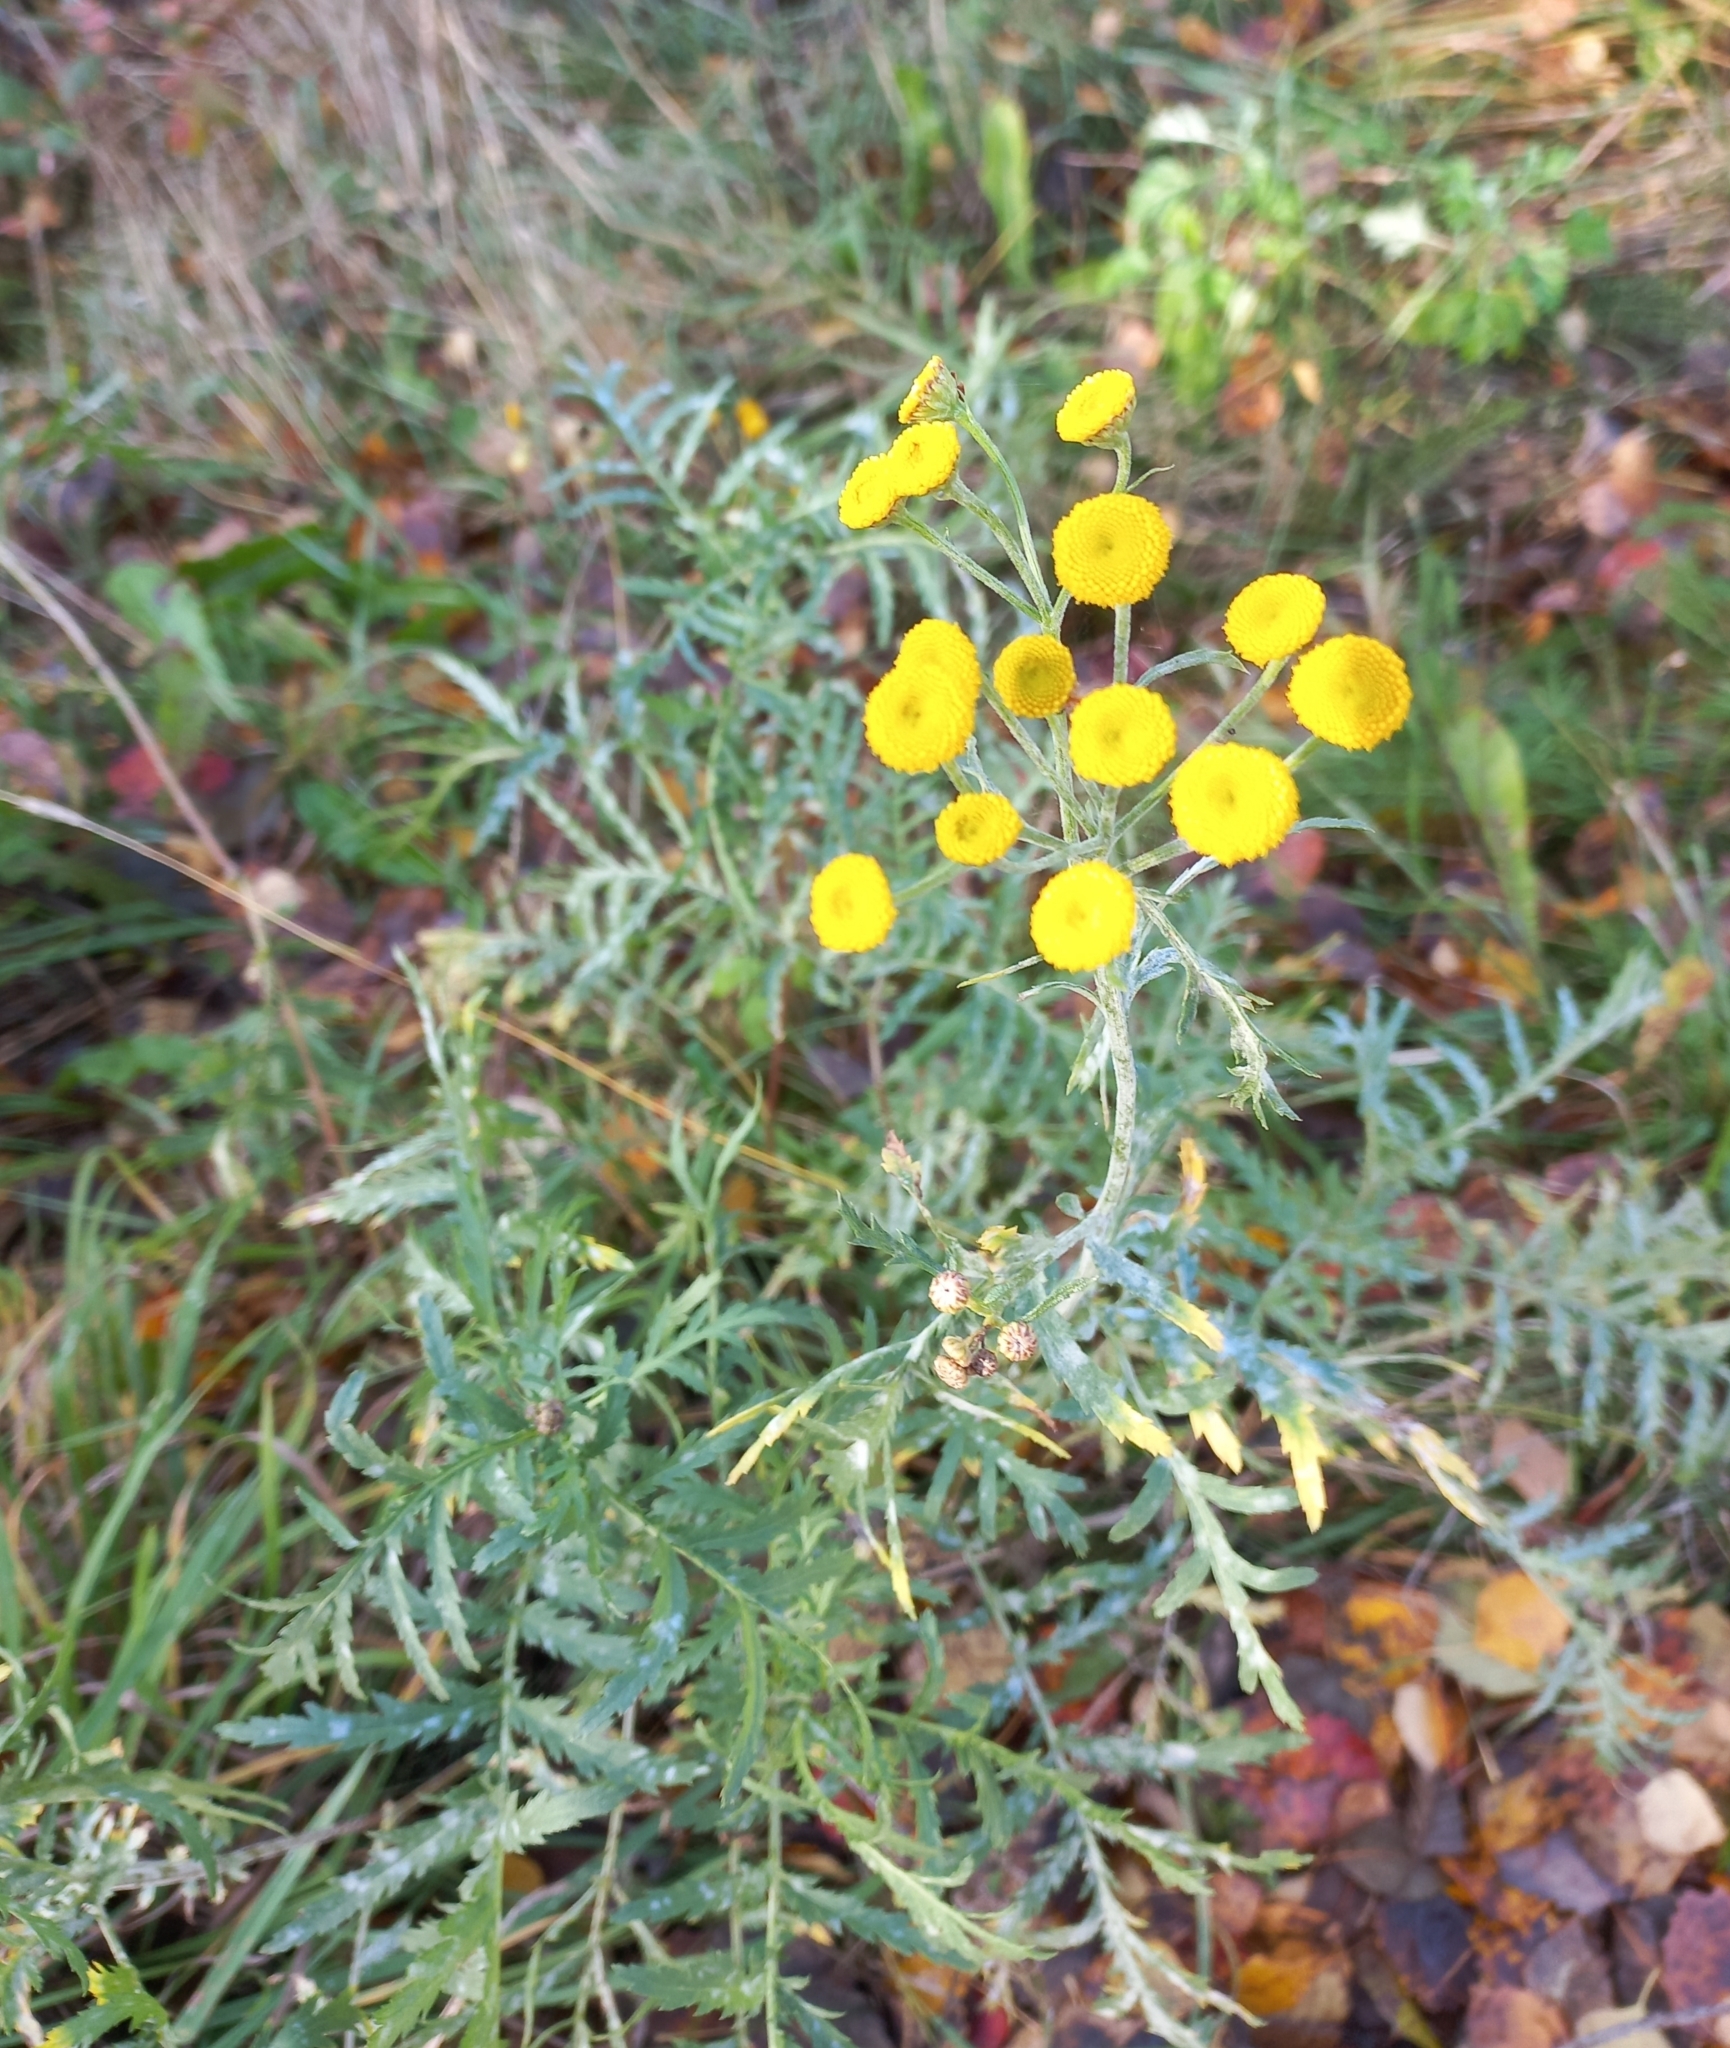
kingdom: Plantae
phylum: Tracheophyta
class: Magnoliopsida
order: Asterales
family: Asteraceae
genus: Tanacetum
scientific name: Tanacetum vulgare
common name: Common tansy
